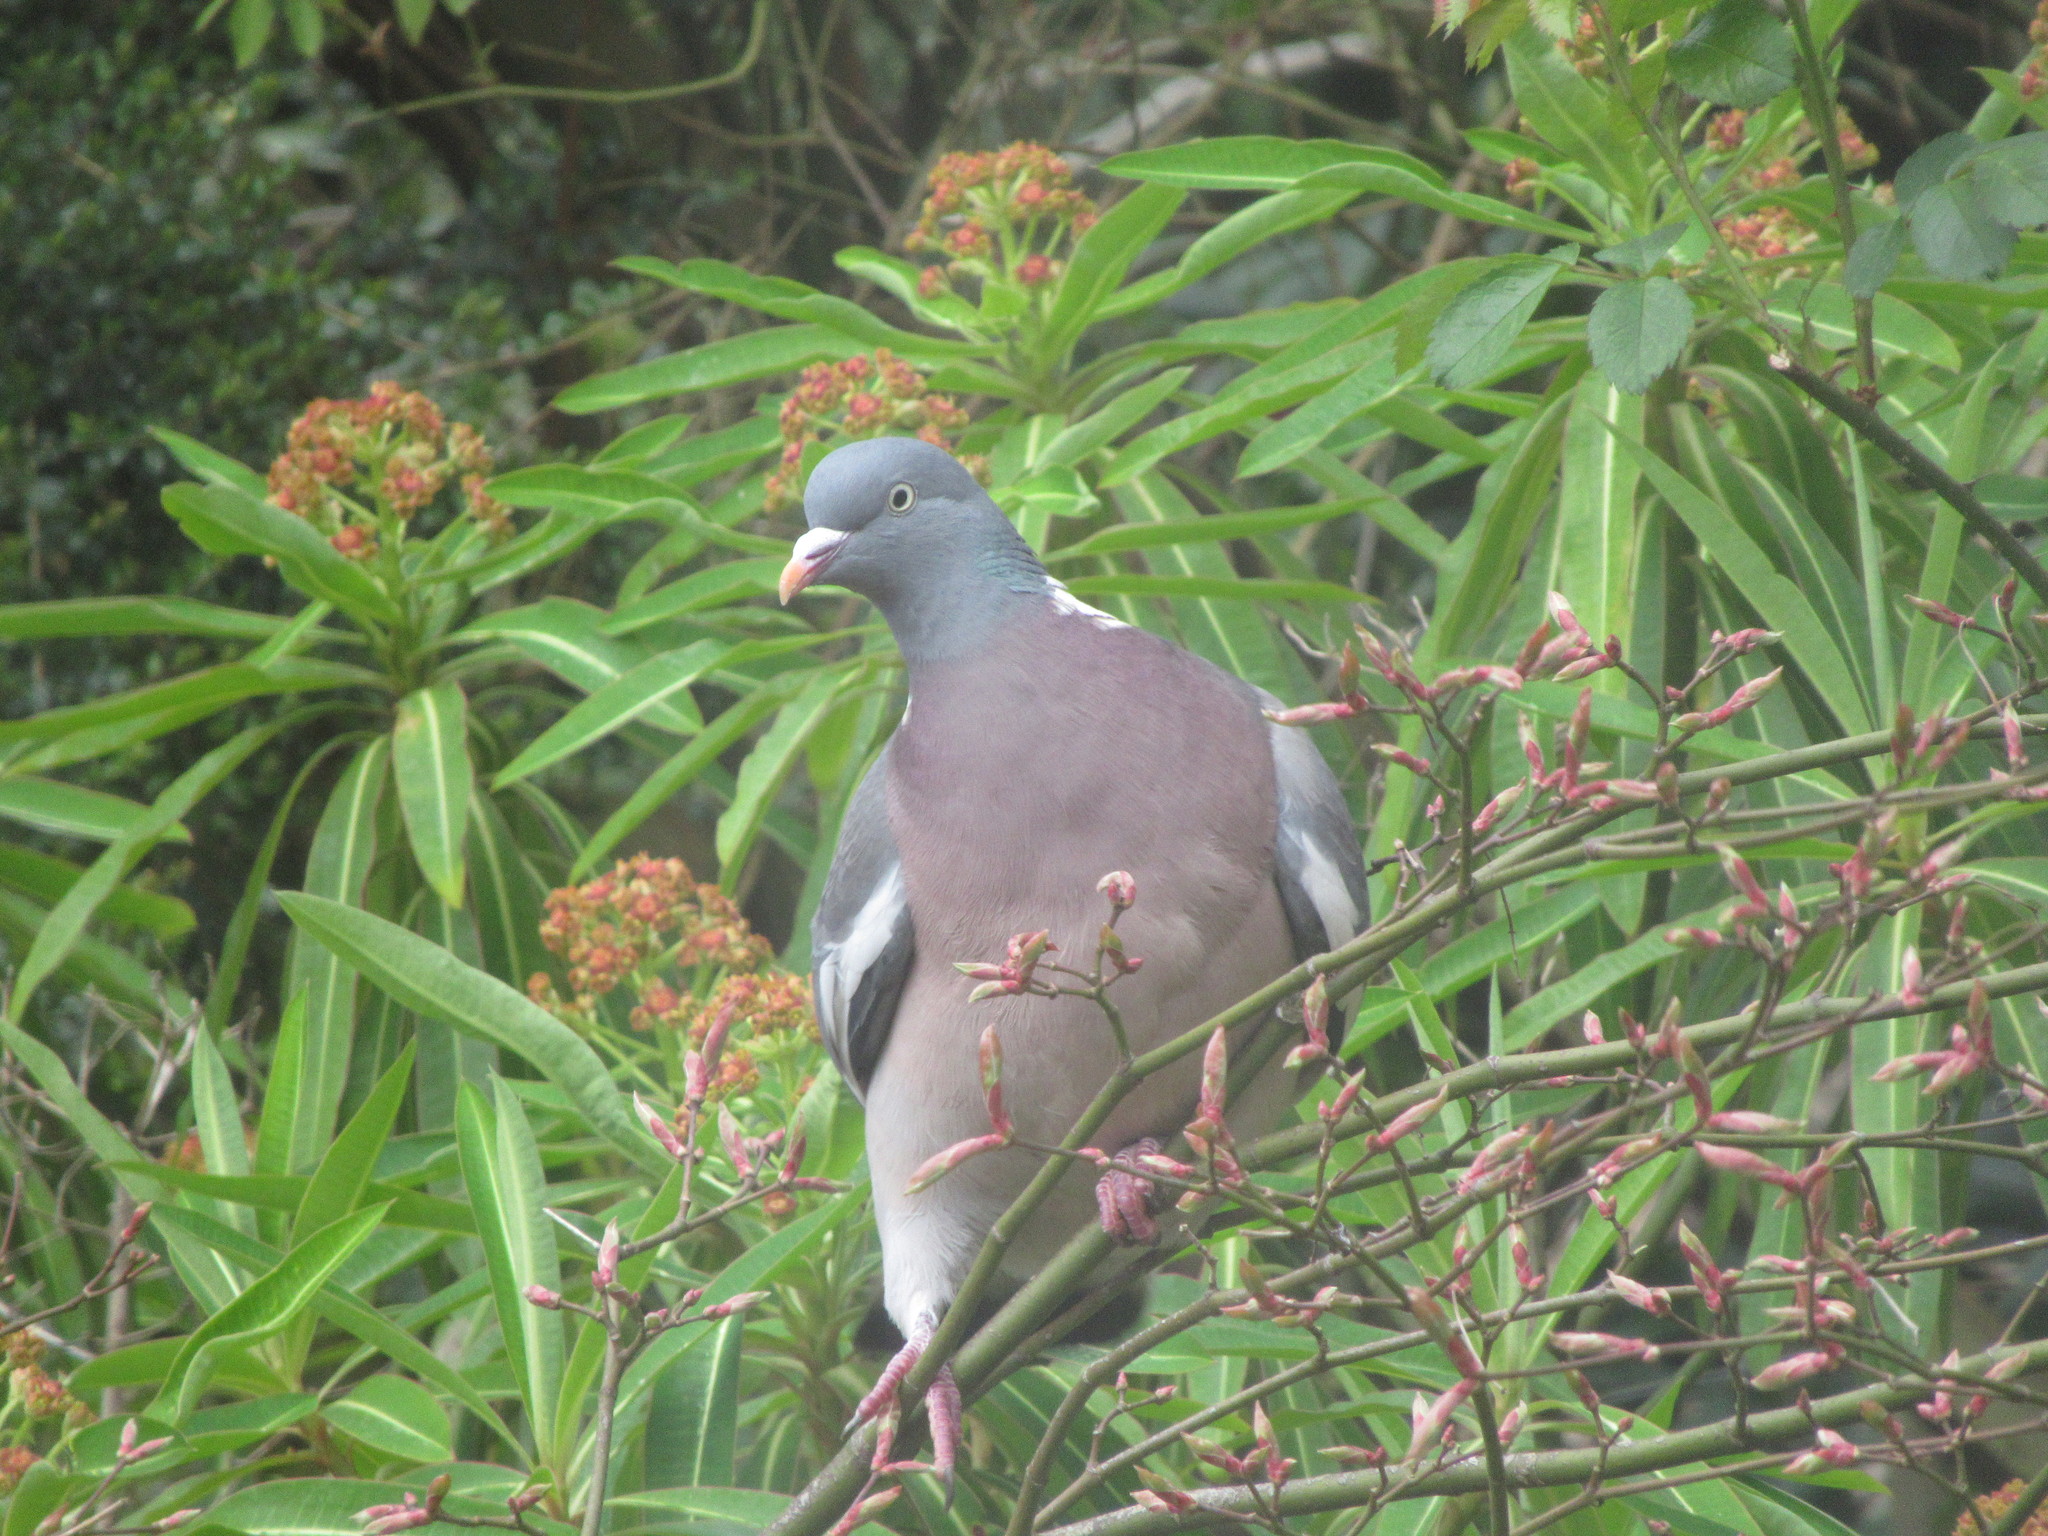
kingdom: Animalia
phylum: Chordata
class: Aves
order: Columbiformes
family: Columbidae
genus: Columba
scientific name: Columba palumbus
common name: Common wood pigeon
